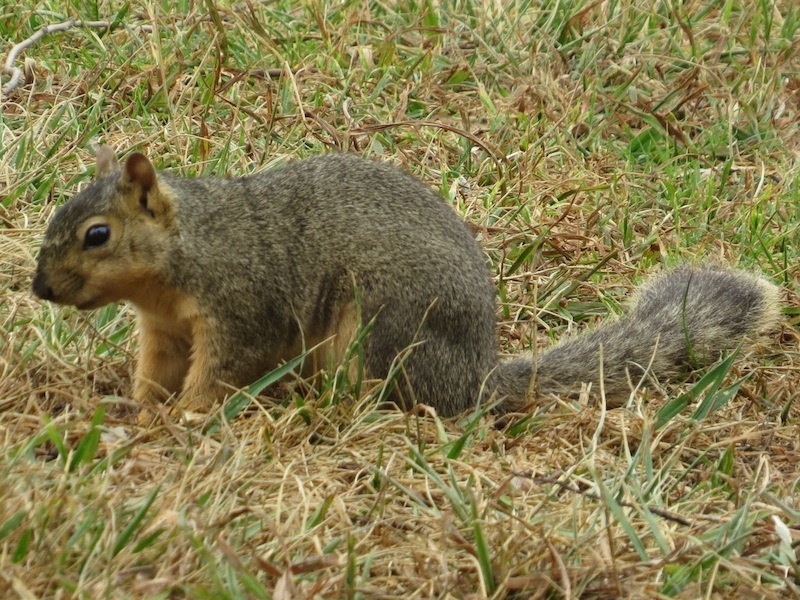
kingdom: Animalia
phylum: Chordata
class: Mammalia
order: Rodentia
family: Sciuridae
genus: Sciurus
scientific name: Sciurus niger
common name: Fox squirrel
